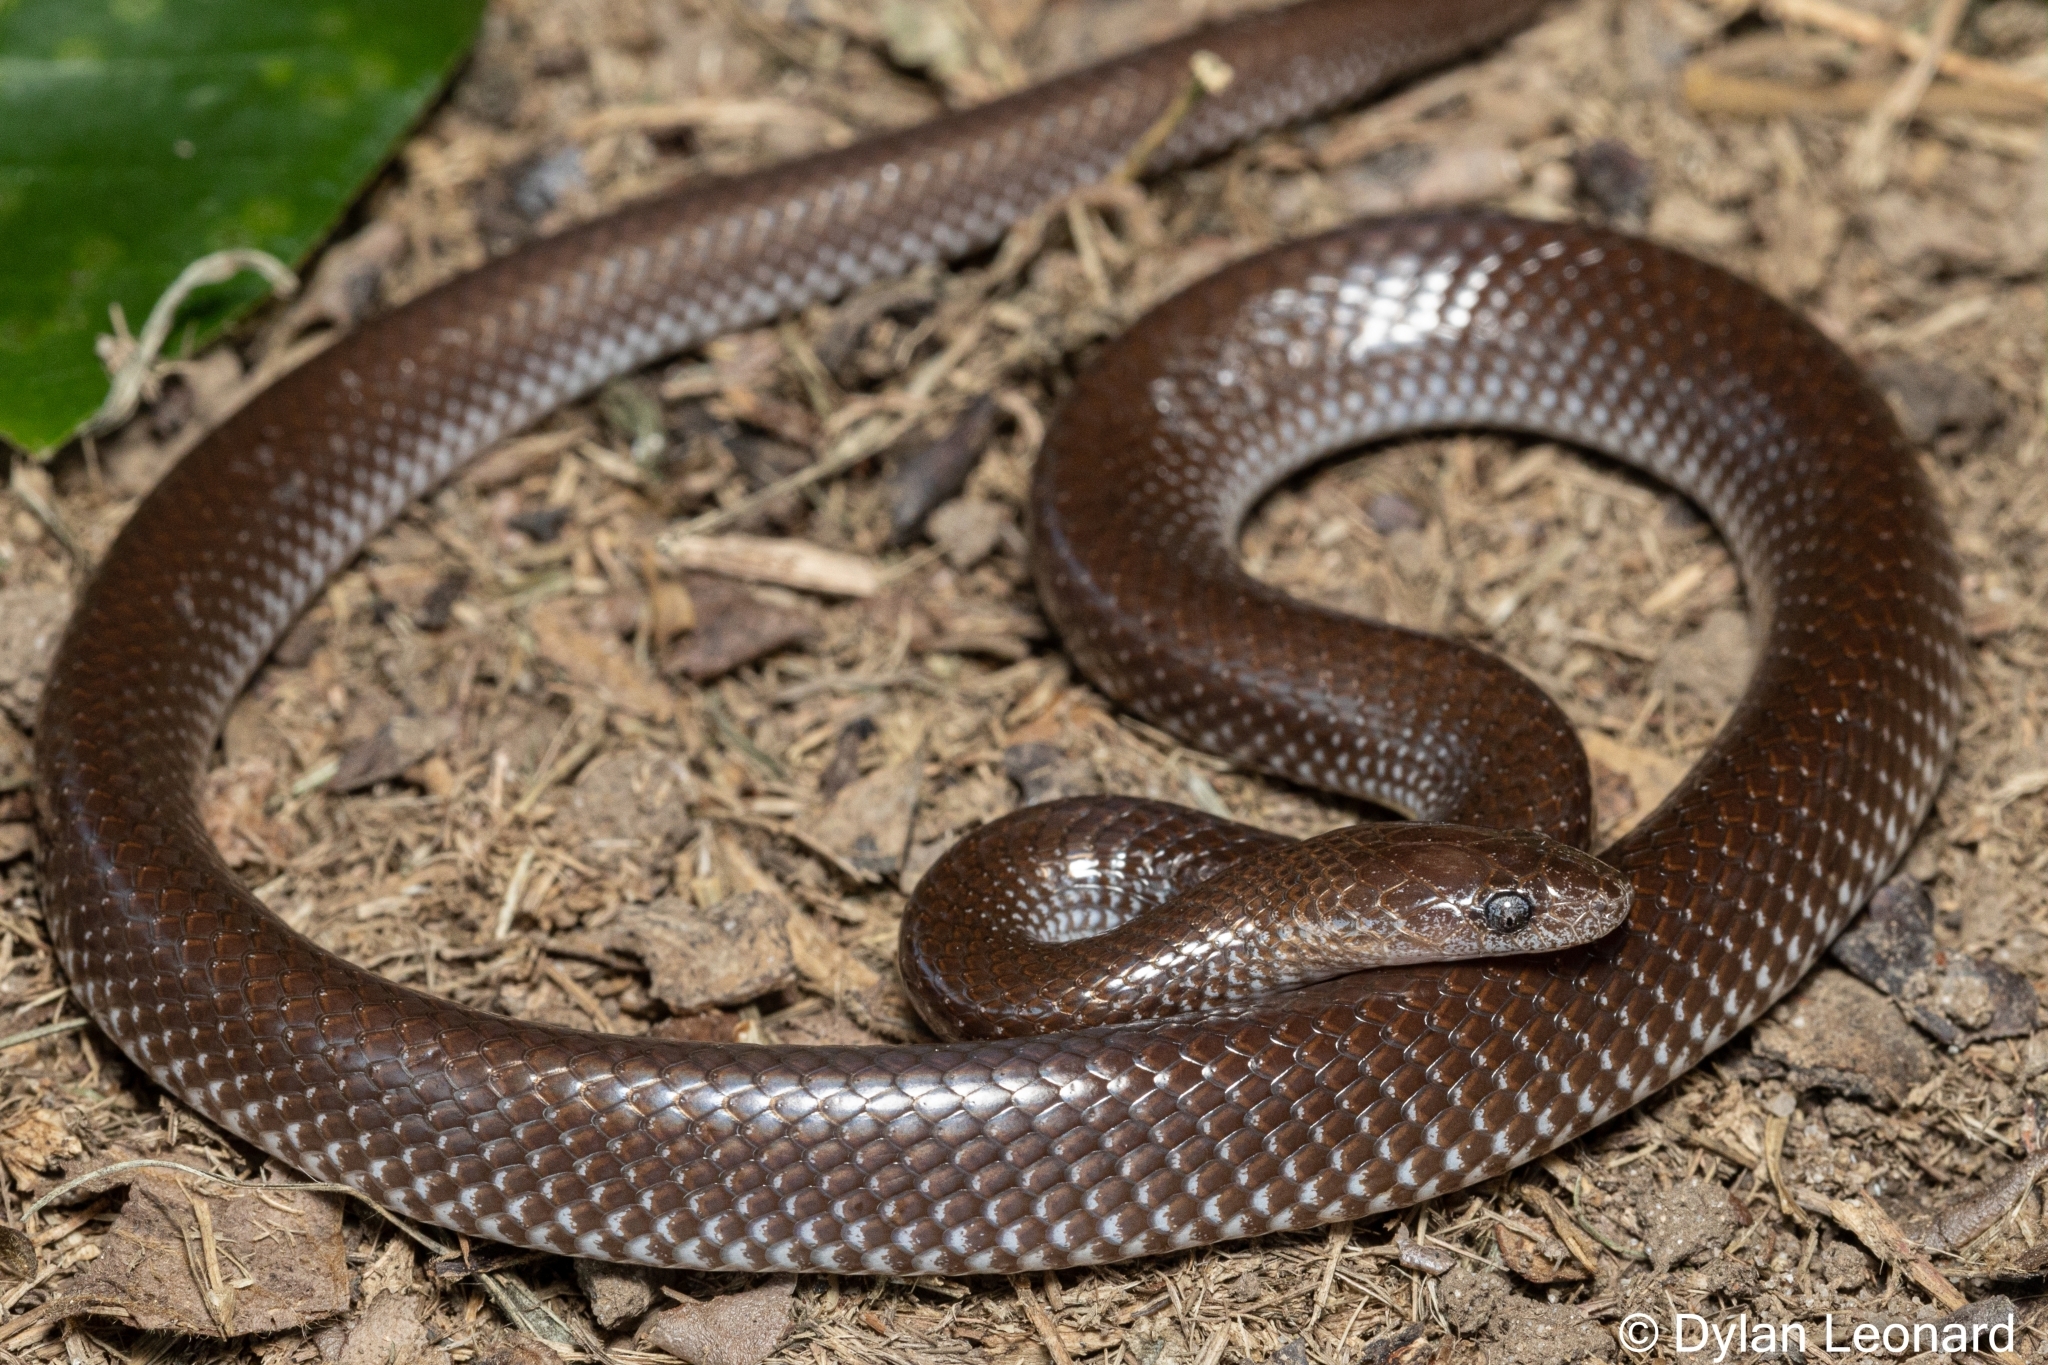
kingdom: Animalia
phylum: Chordata
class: Squamata
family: Lamprophiidae
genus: Lycophidion
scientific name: Lycophidion capense
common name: Cape wolf snake
